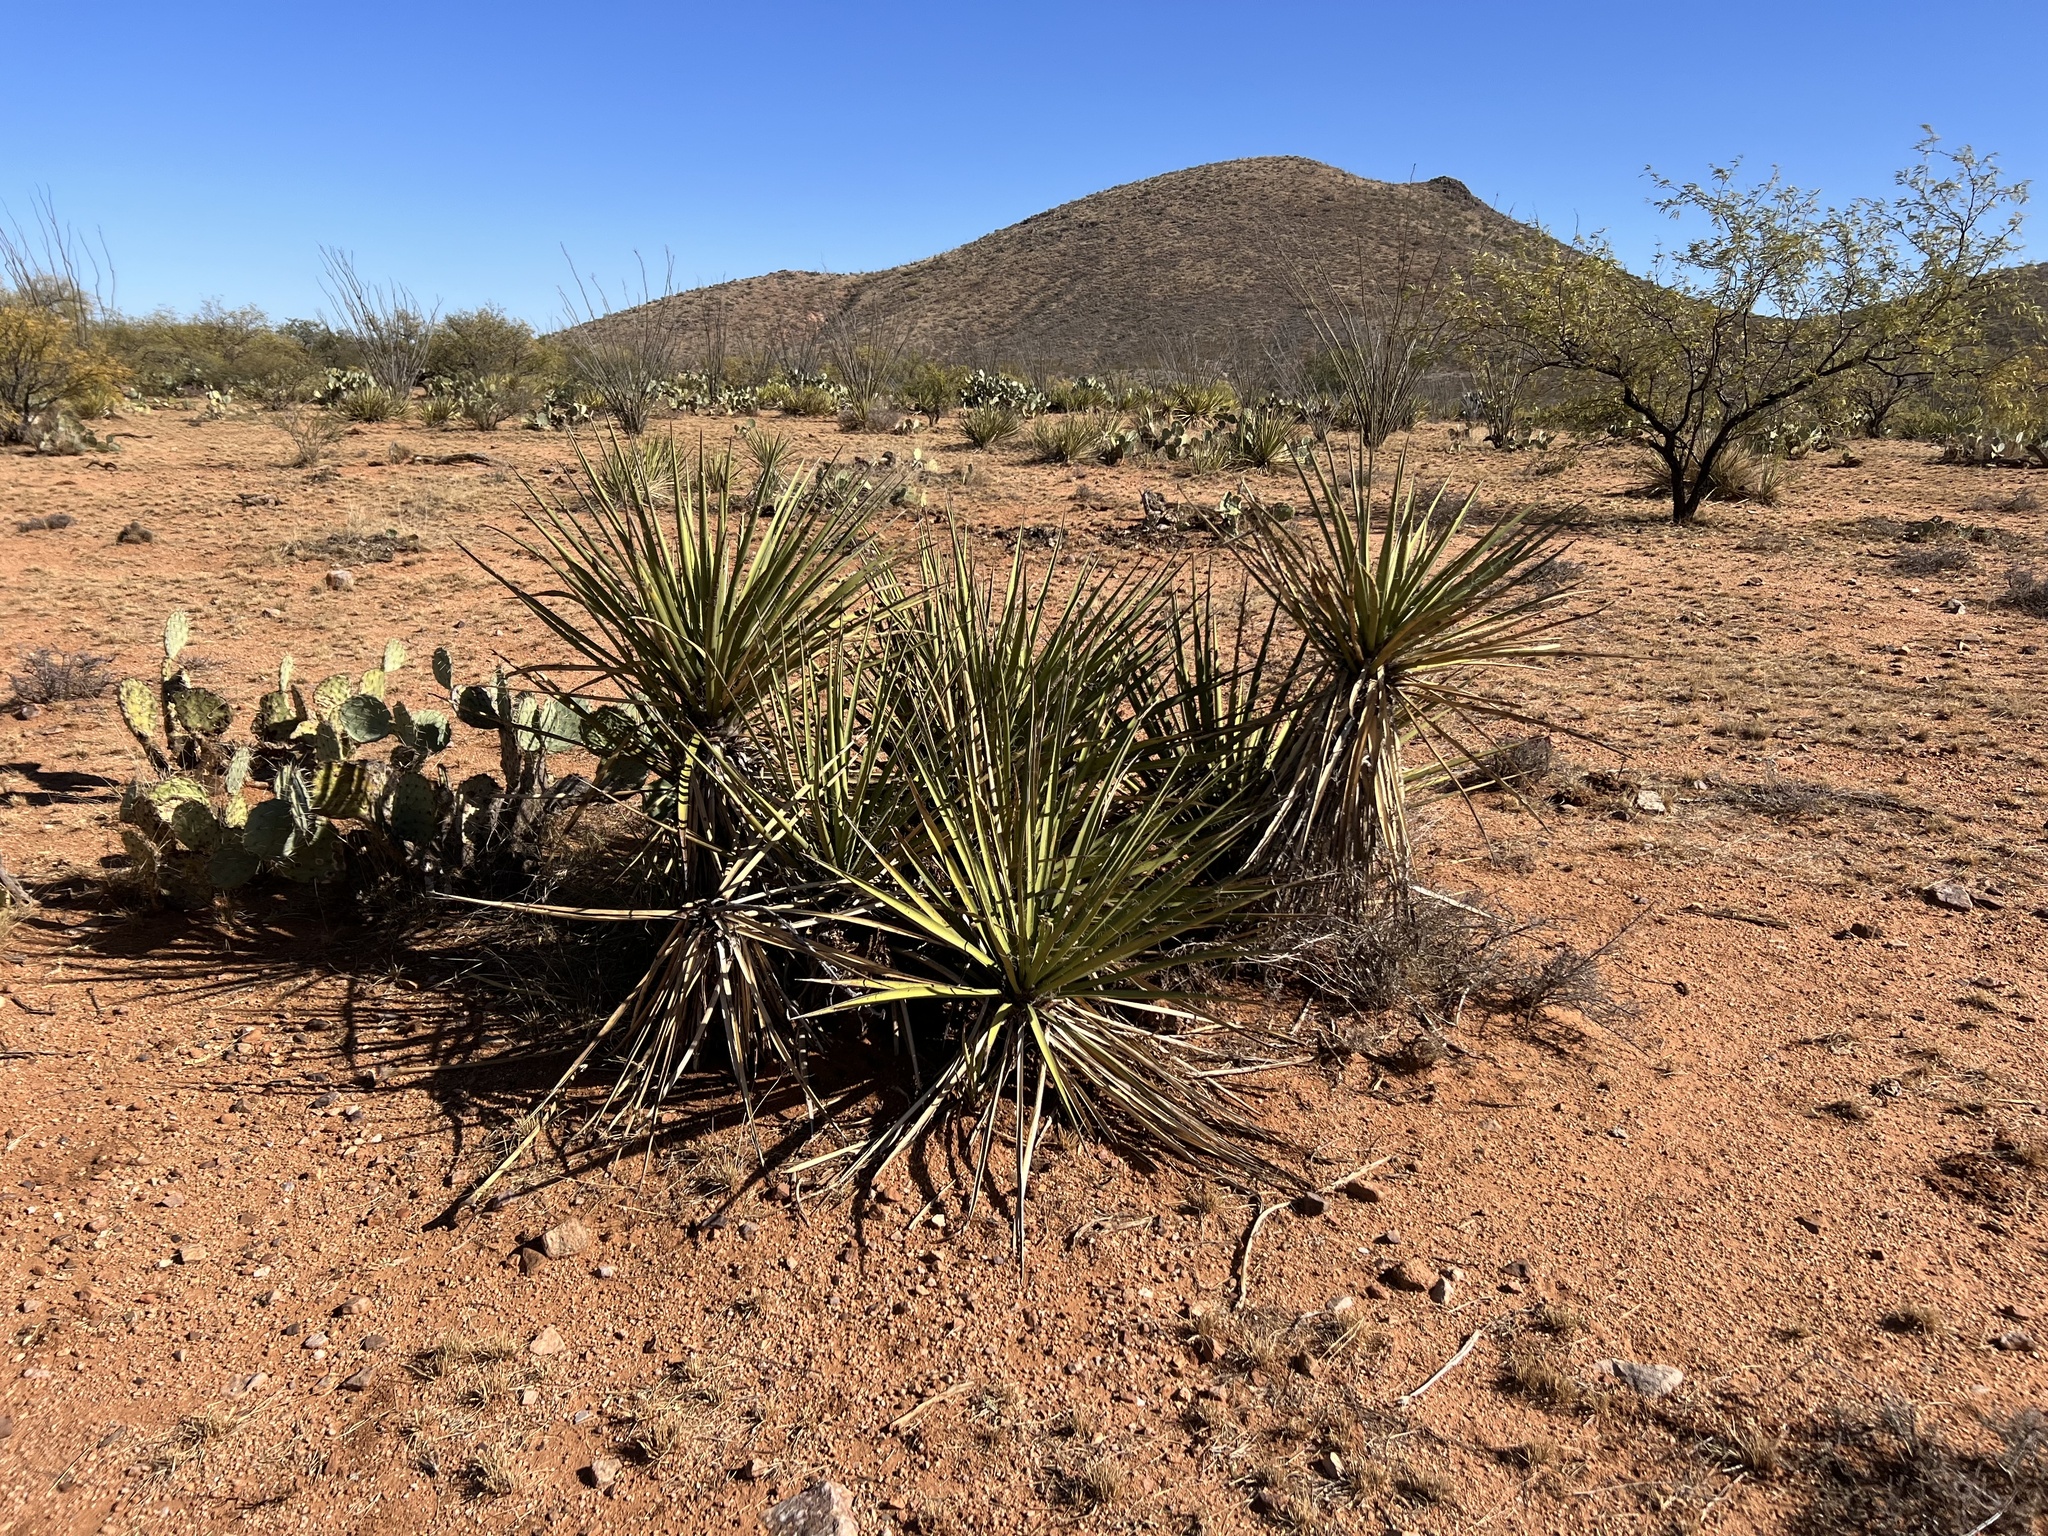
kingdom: Plantae
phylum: Tracheophyta
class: Liliopsida
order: Asparagales
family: Asparagaceae
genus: Yucca
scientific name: Yucca baccata
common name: Banana yucca
